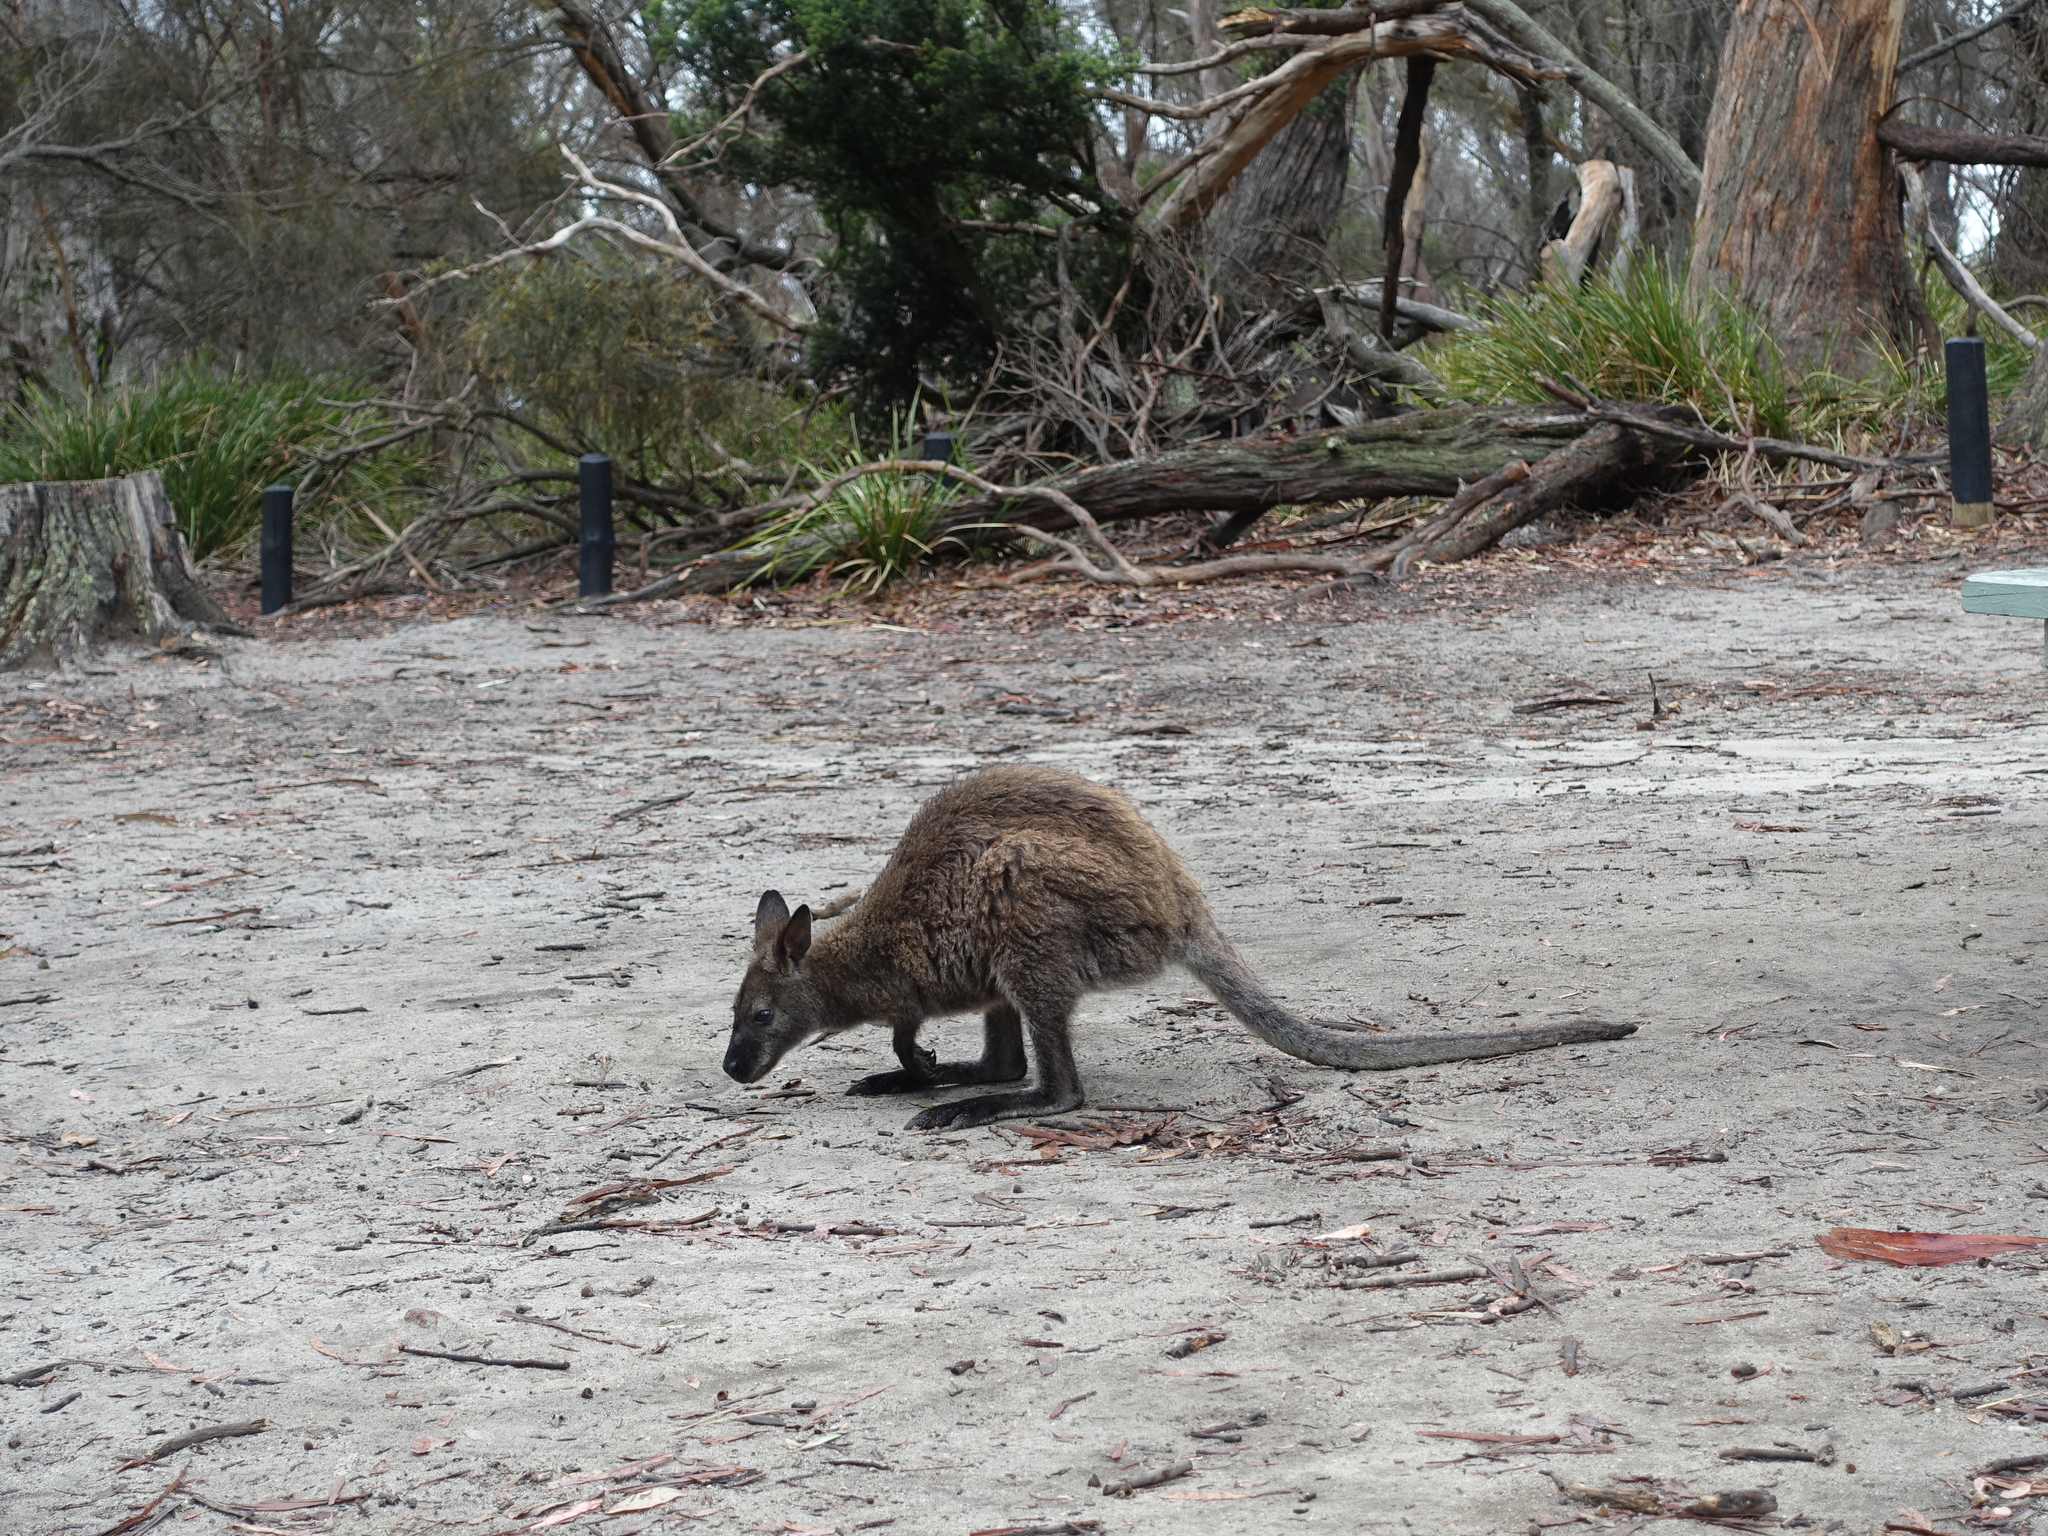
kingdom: Animalia
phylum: Chordata
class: Mammalia
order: Diprotodontia
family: Macropodidae
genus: Notamacropus
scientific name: Notamacropus rufogriseus
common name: Red-necked wallaby
